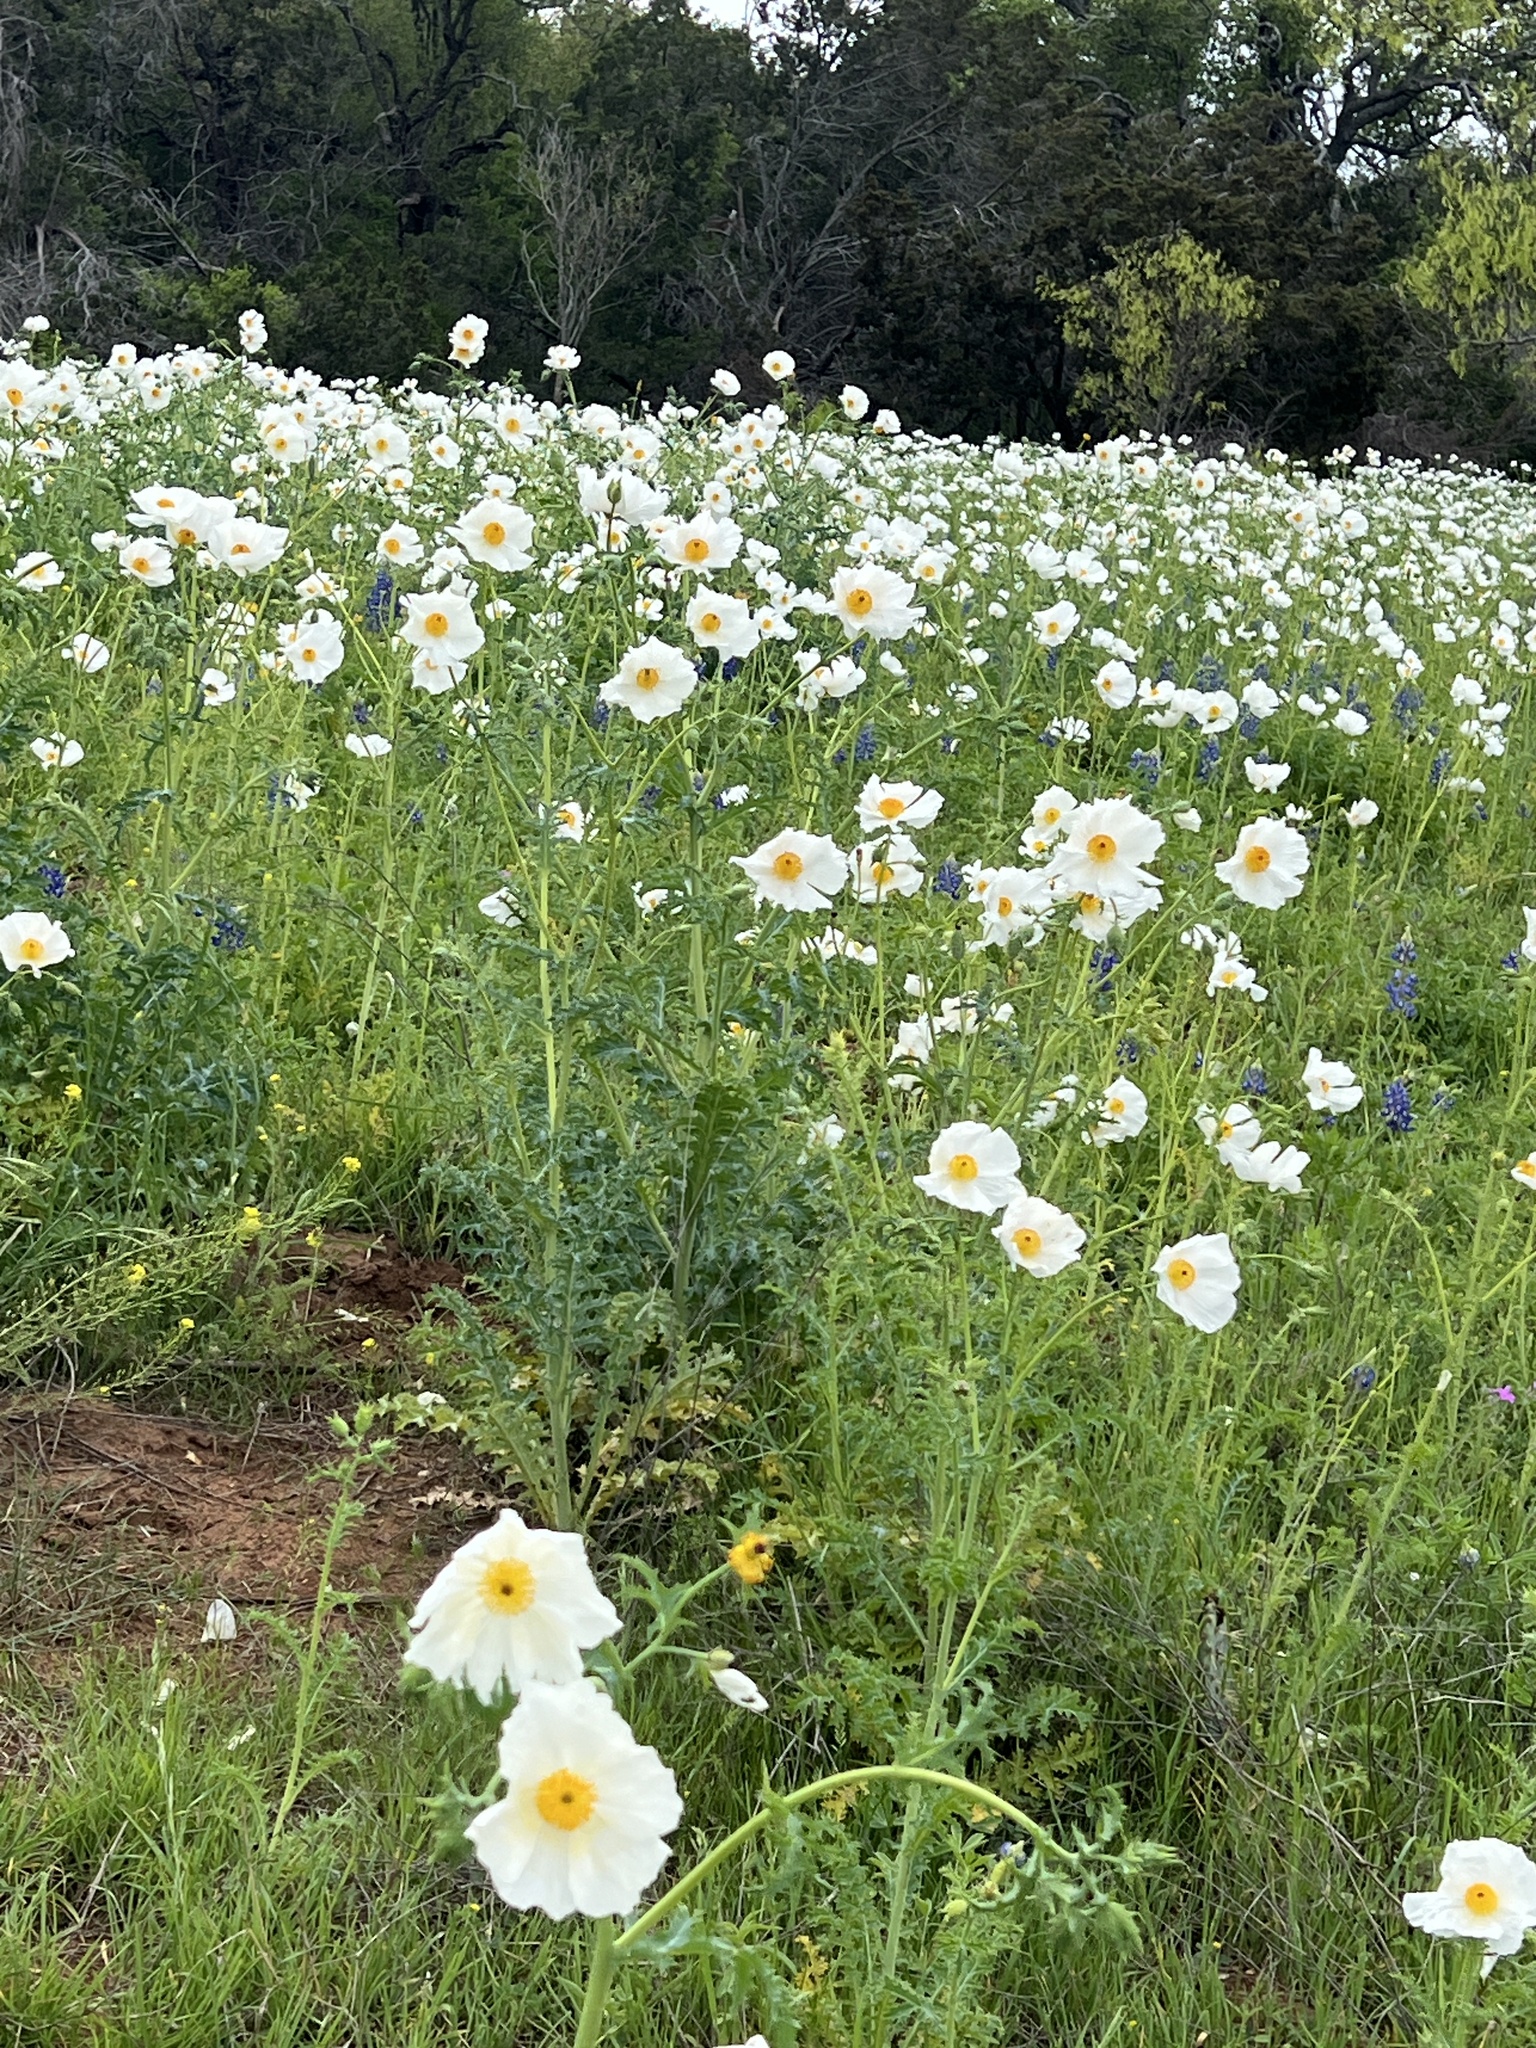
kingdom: Plantae
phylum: Tracheophyta
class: Magnoliopsida
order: Ranunculales
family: Papaveraceae
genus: Argemone
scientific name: Argemone albiflora
